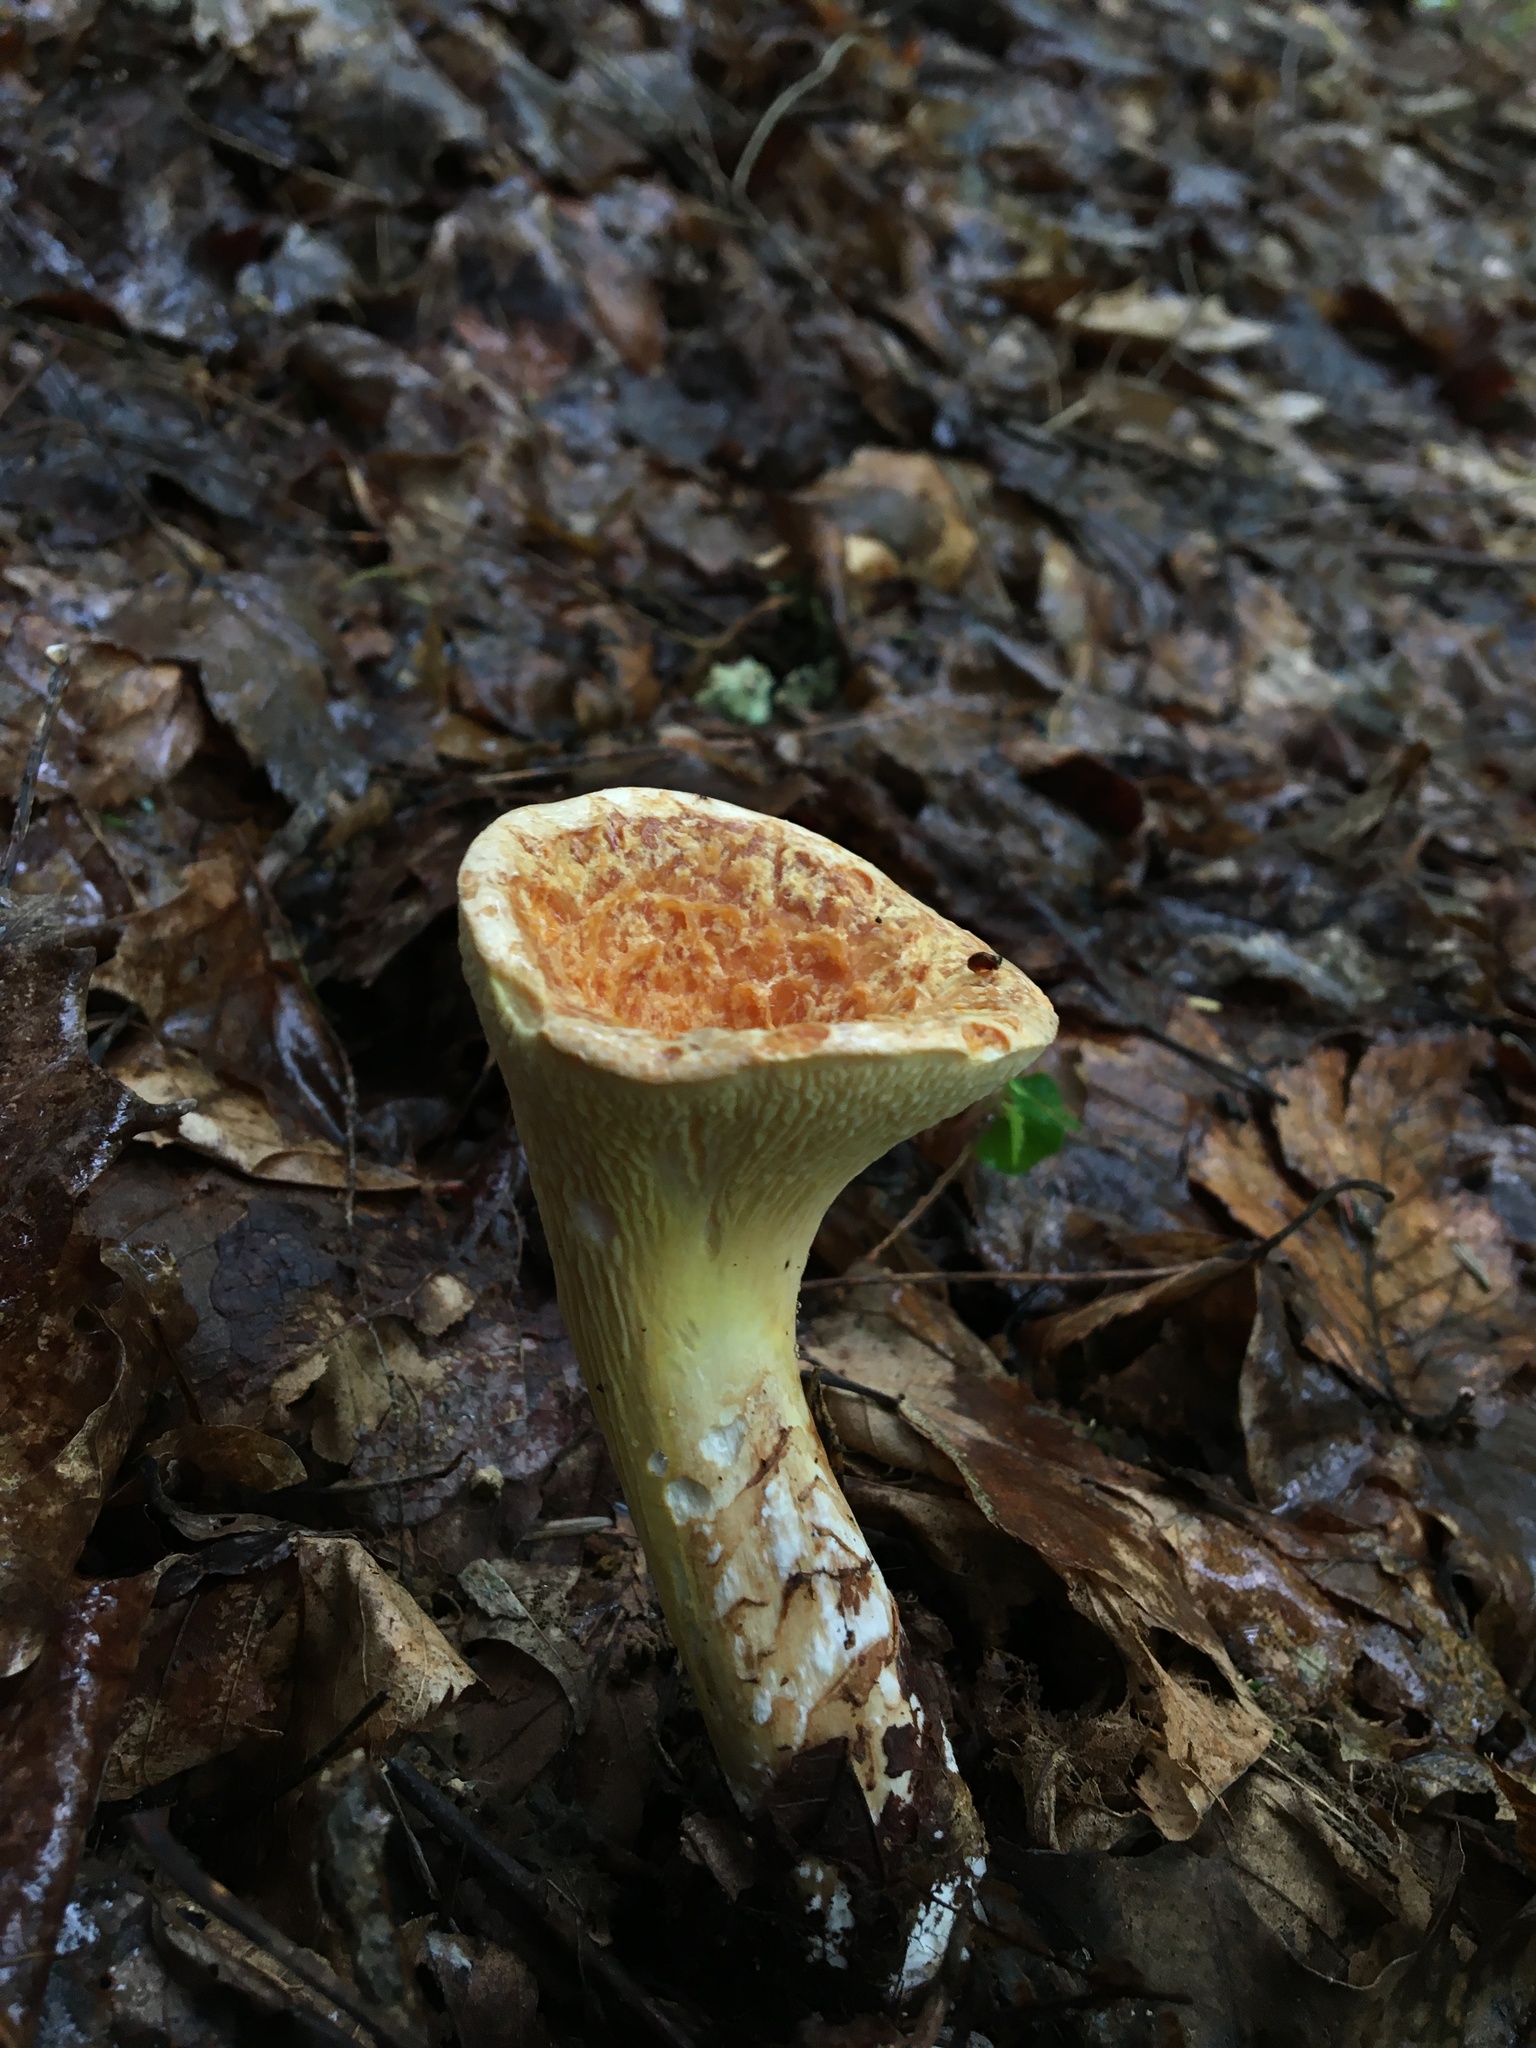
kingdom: Fungi
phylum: Basidiomycota
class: Agaricomycetes
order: Gomphales
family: Gomphaceae
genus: Turbinellus
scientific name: Turbinellus kauffmanii
